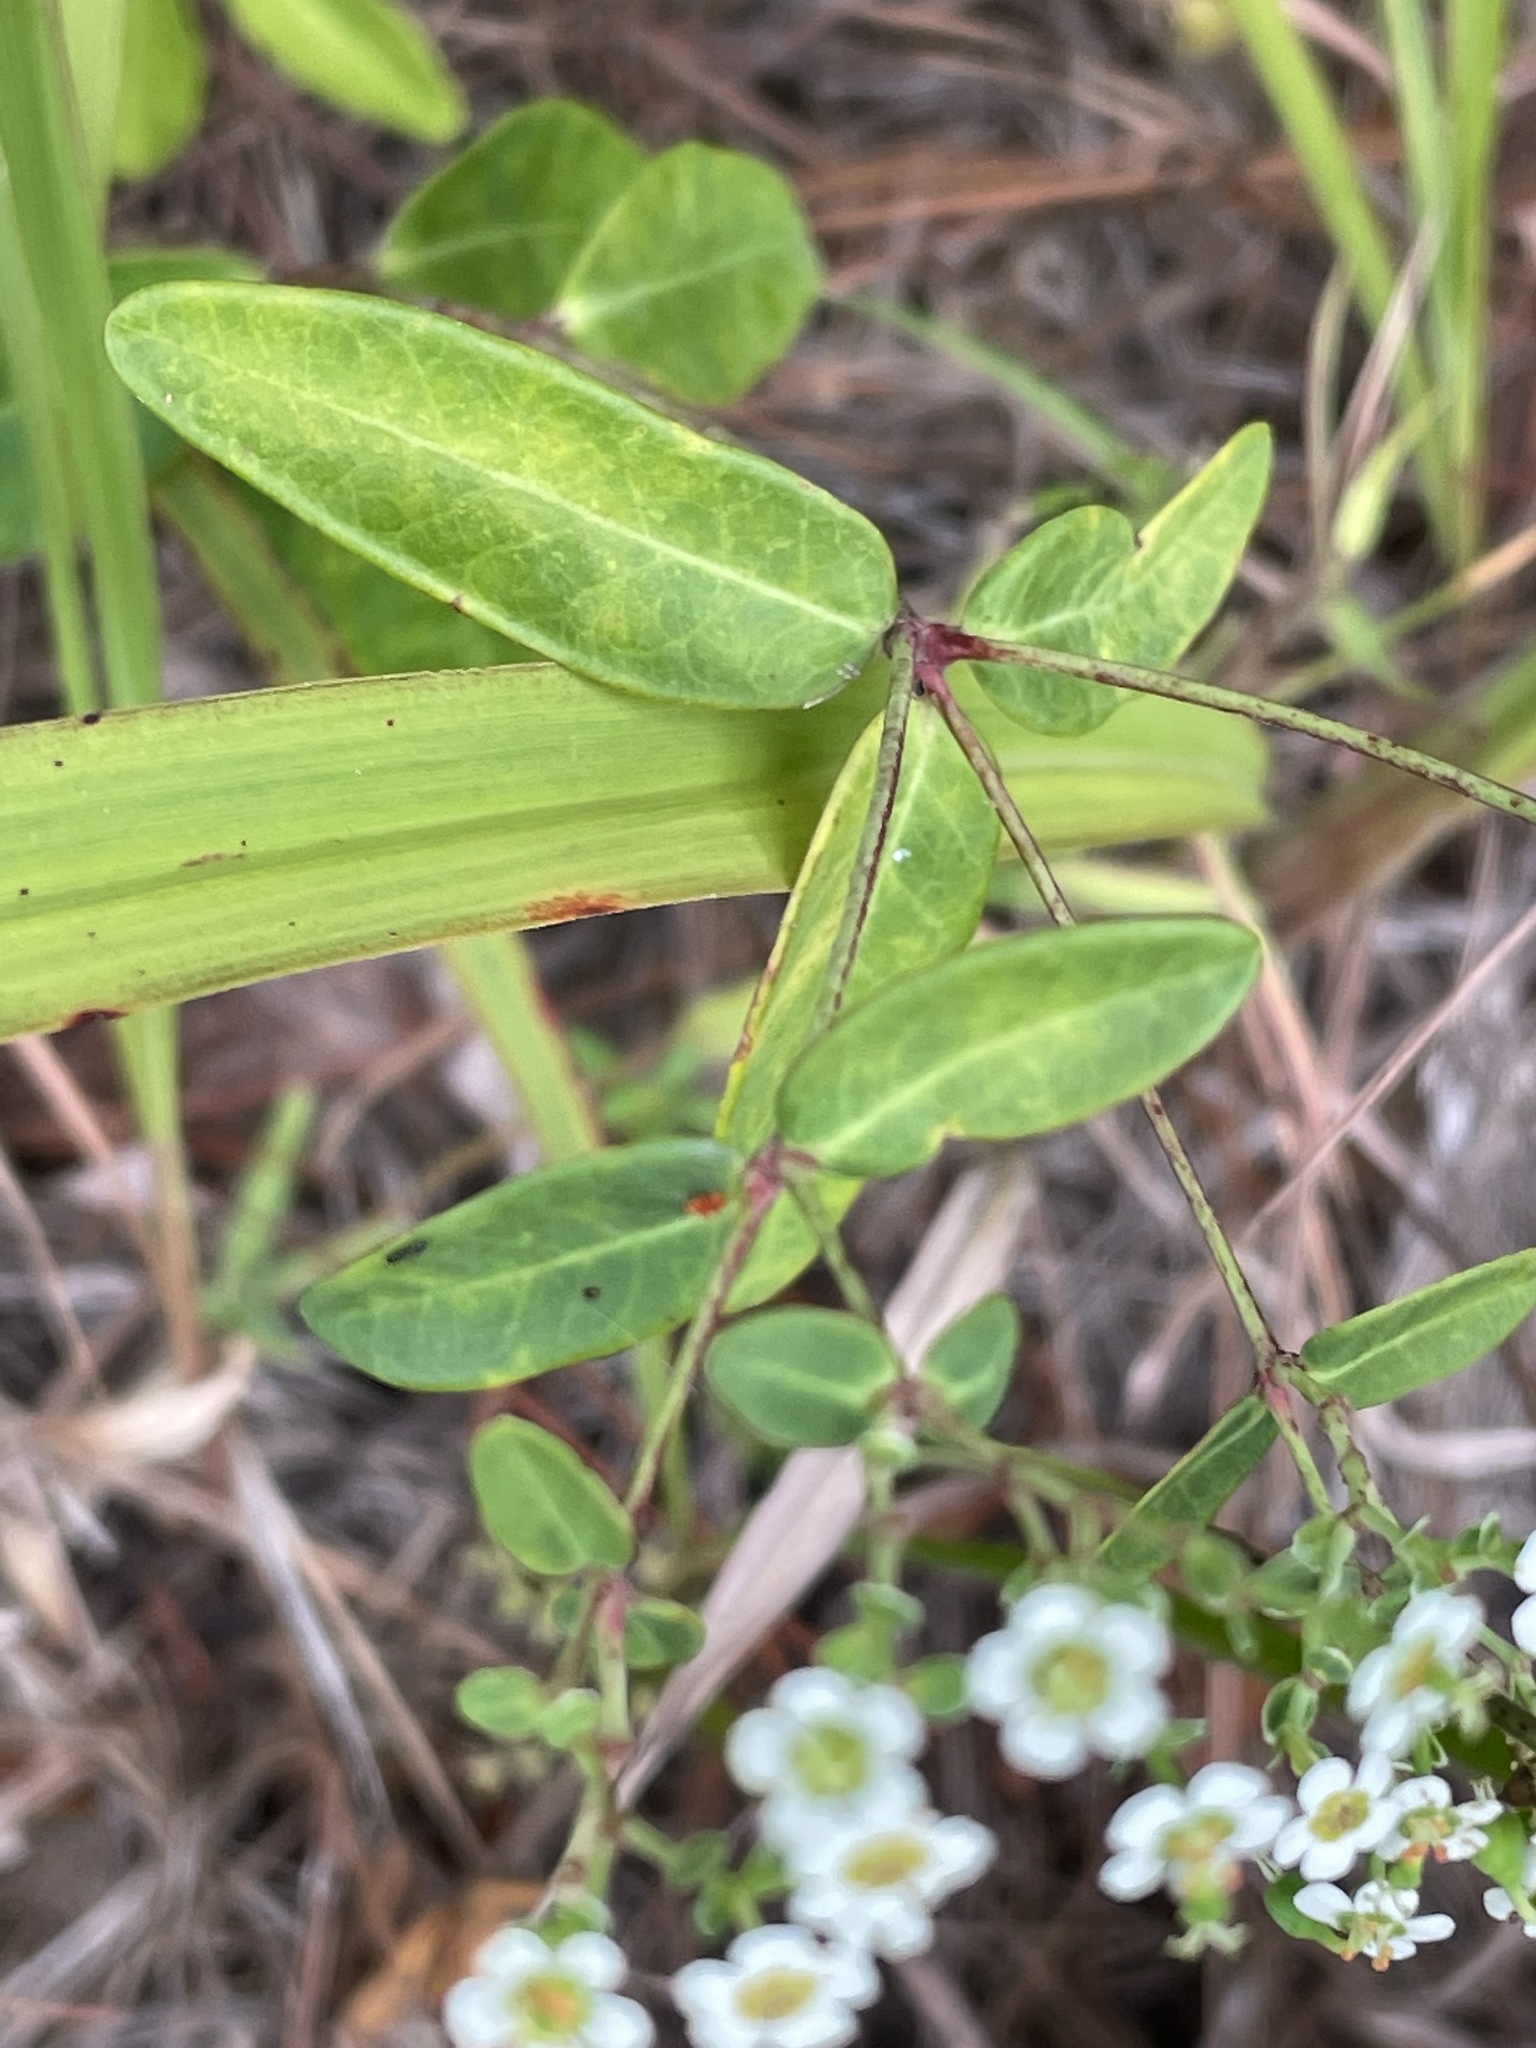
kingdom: Plantae
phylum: Tracheophyta
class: Magnoliopsida
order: Malpighiales
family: Euphorbiaceae
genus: Euphorbia
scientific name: Euphorbia corollata
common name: Flowering spurge
